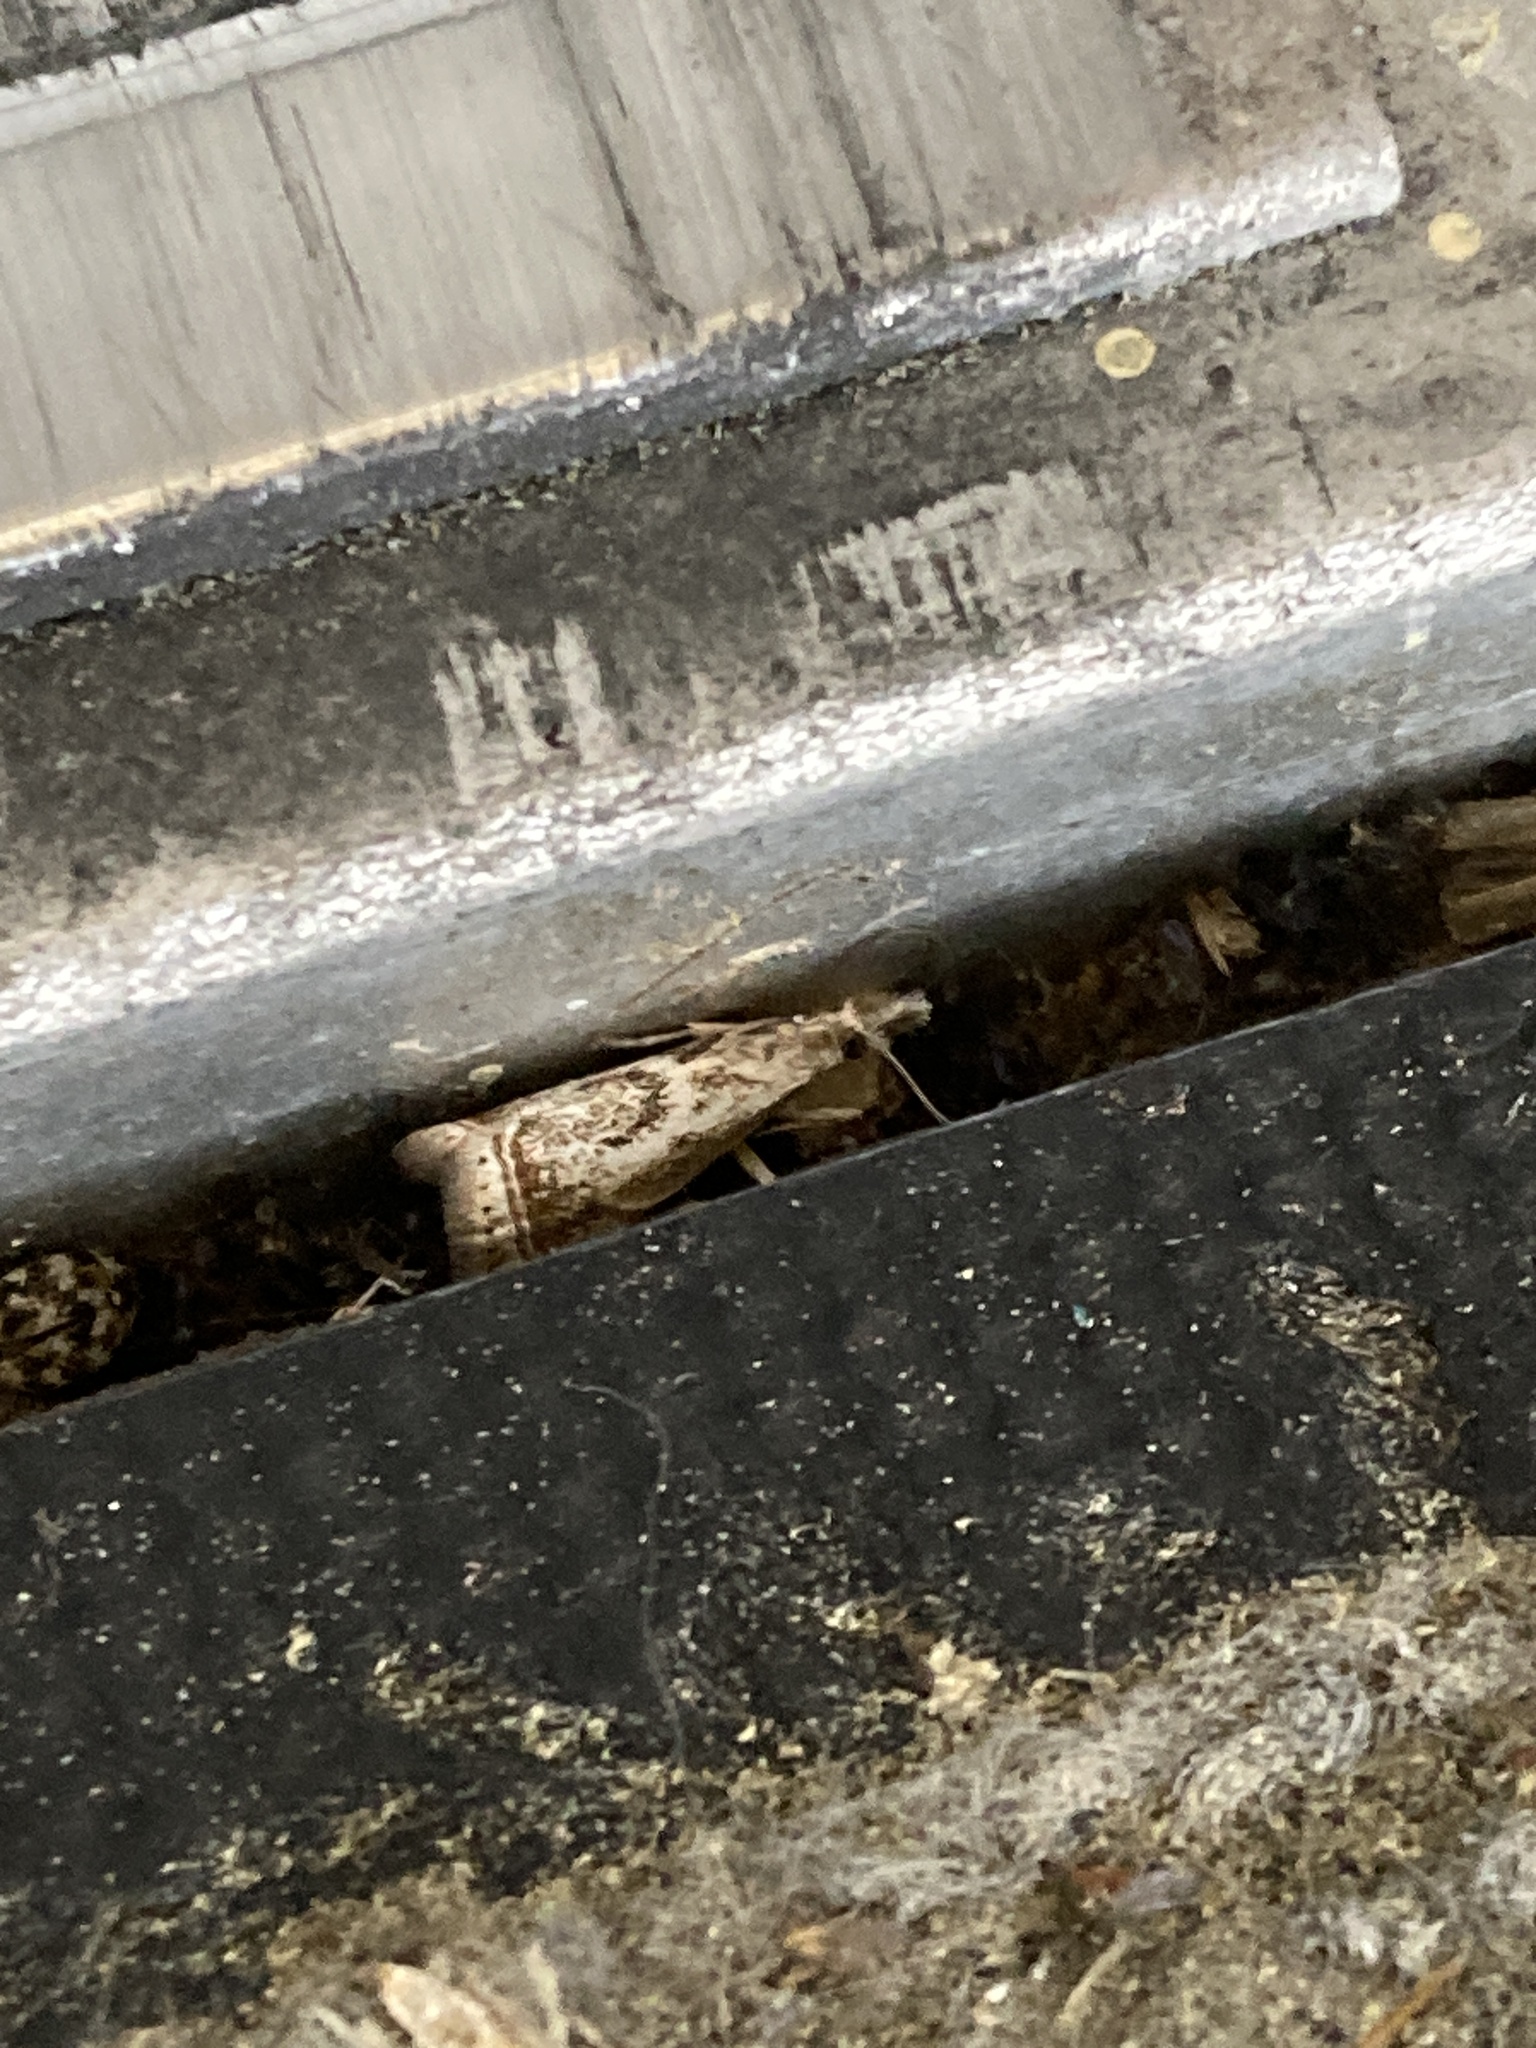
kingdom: Animalia
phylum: Arthropoda
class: Insecta
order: Lepidoptera
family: Crambidae
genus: Microcrambus
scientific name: Microcrambus elegans
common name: Elegant grass-veneer
